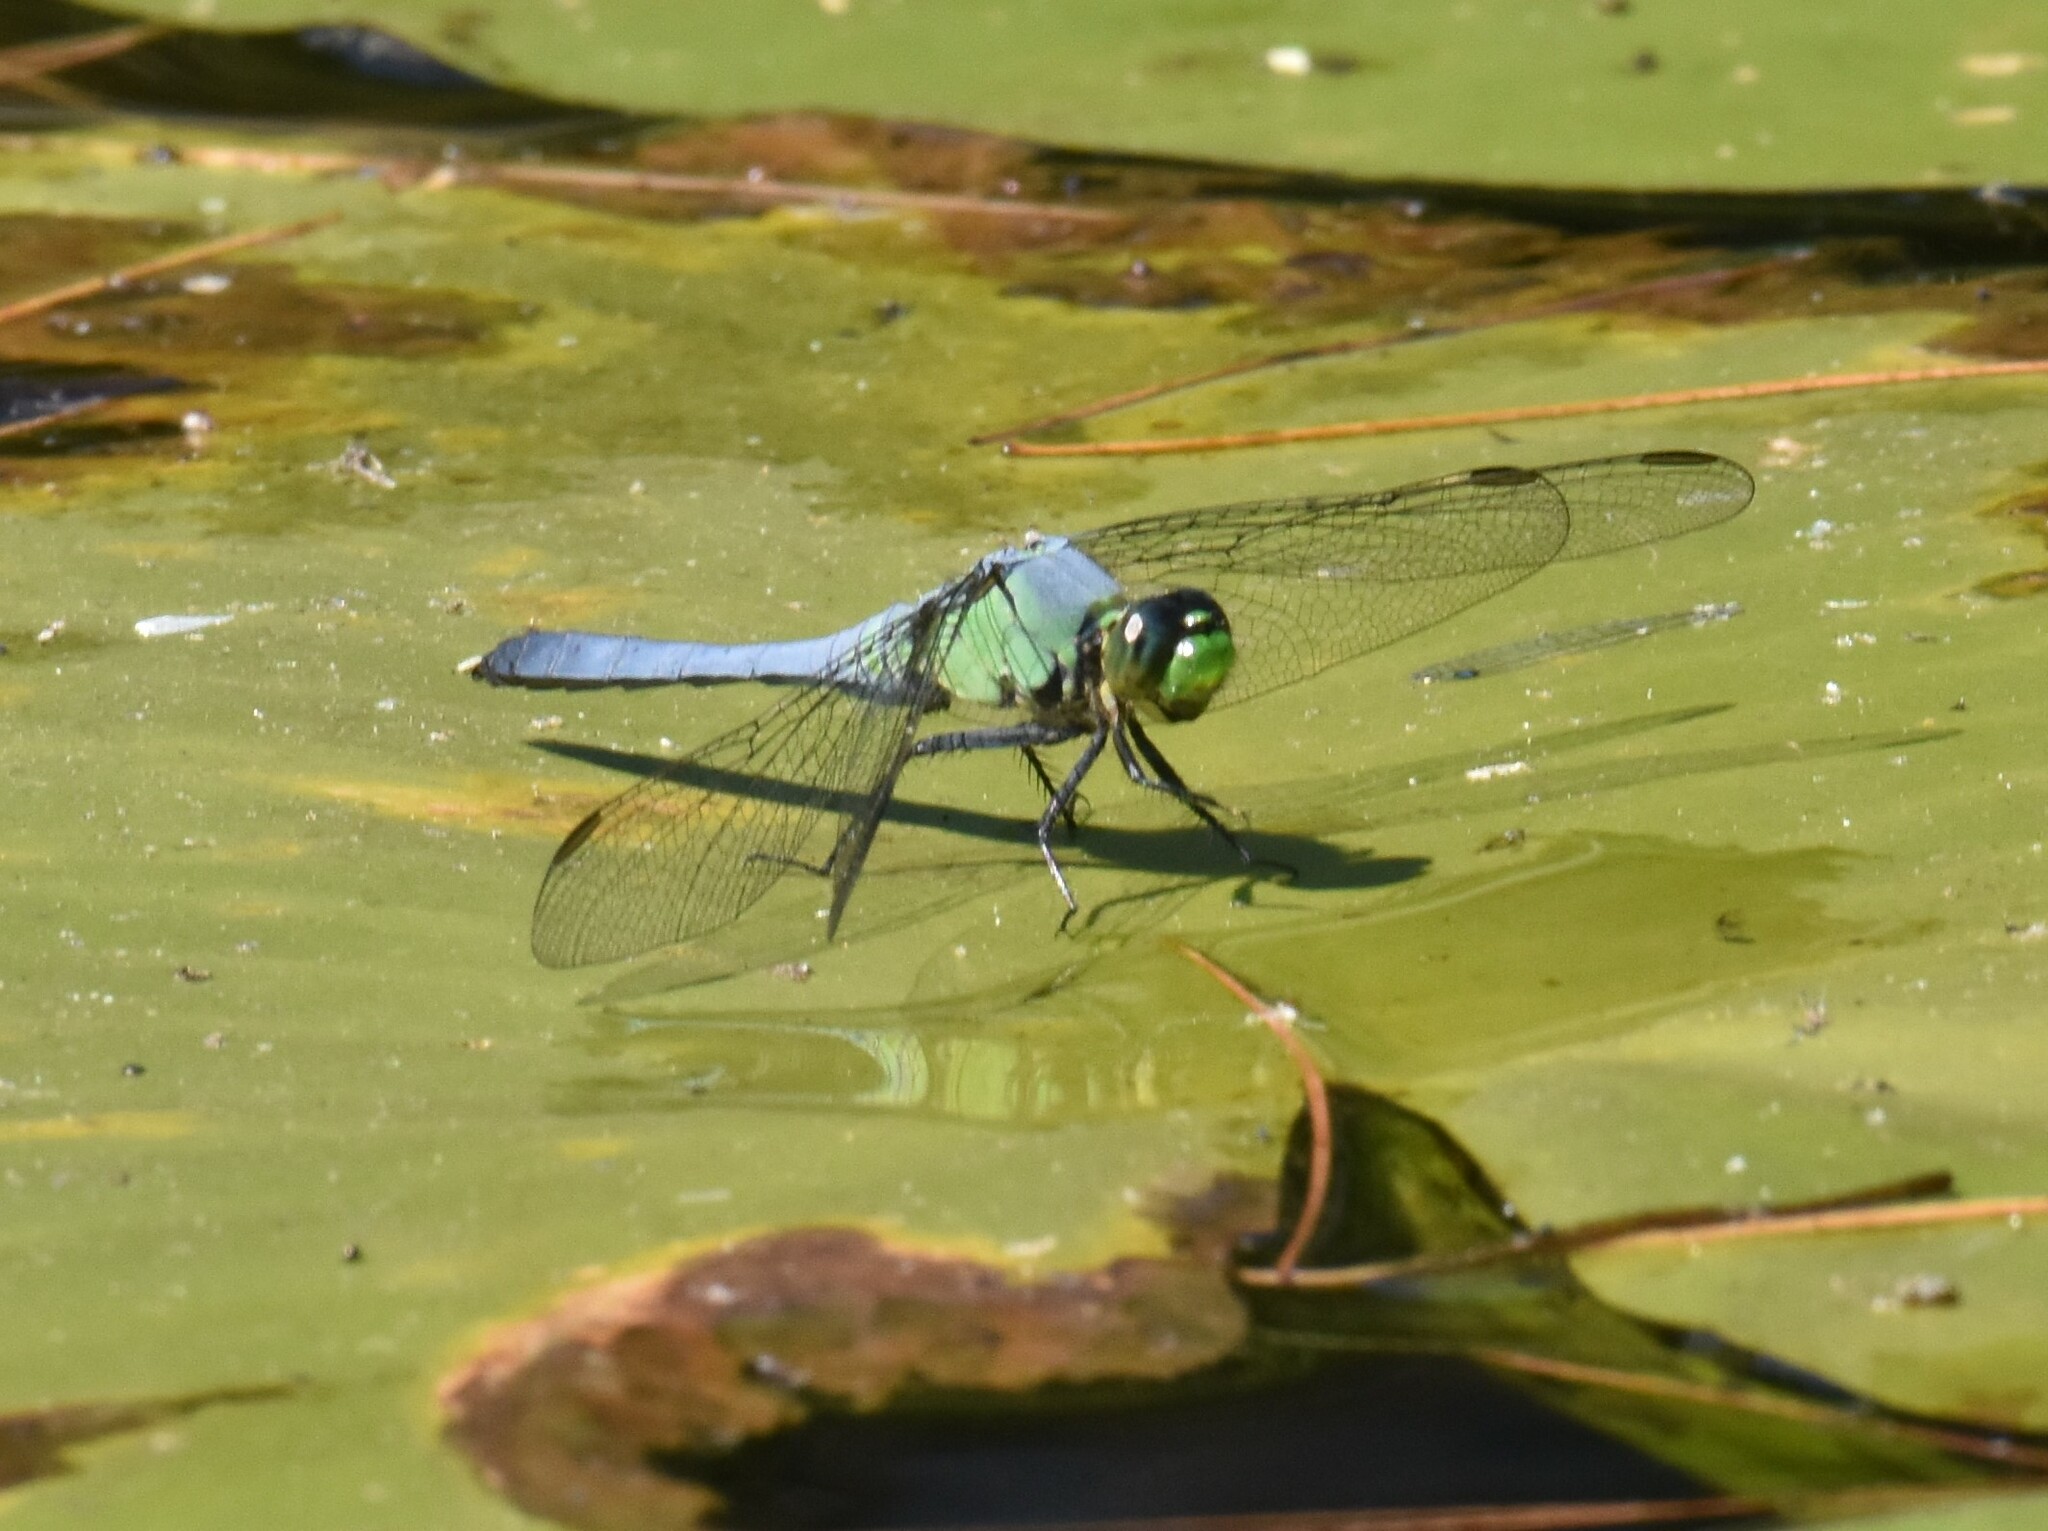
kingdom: Animalia
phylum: Arthropoda
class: Insecta
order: Odonata
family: Libellulidae
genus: Erythemis
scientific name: Erythemis simplicicollis
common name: Eastern pondhawk
